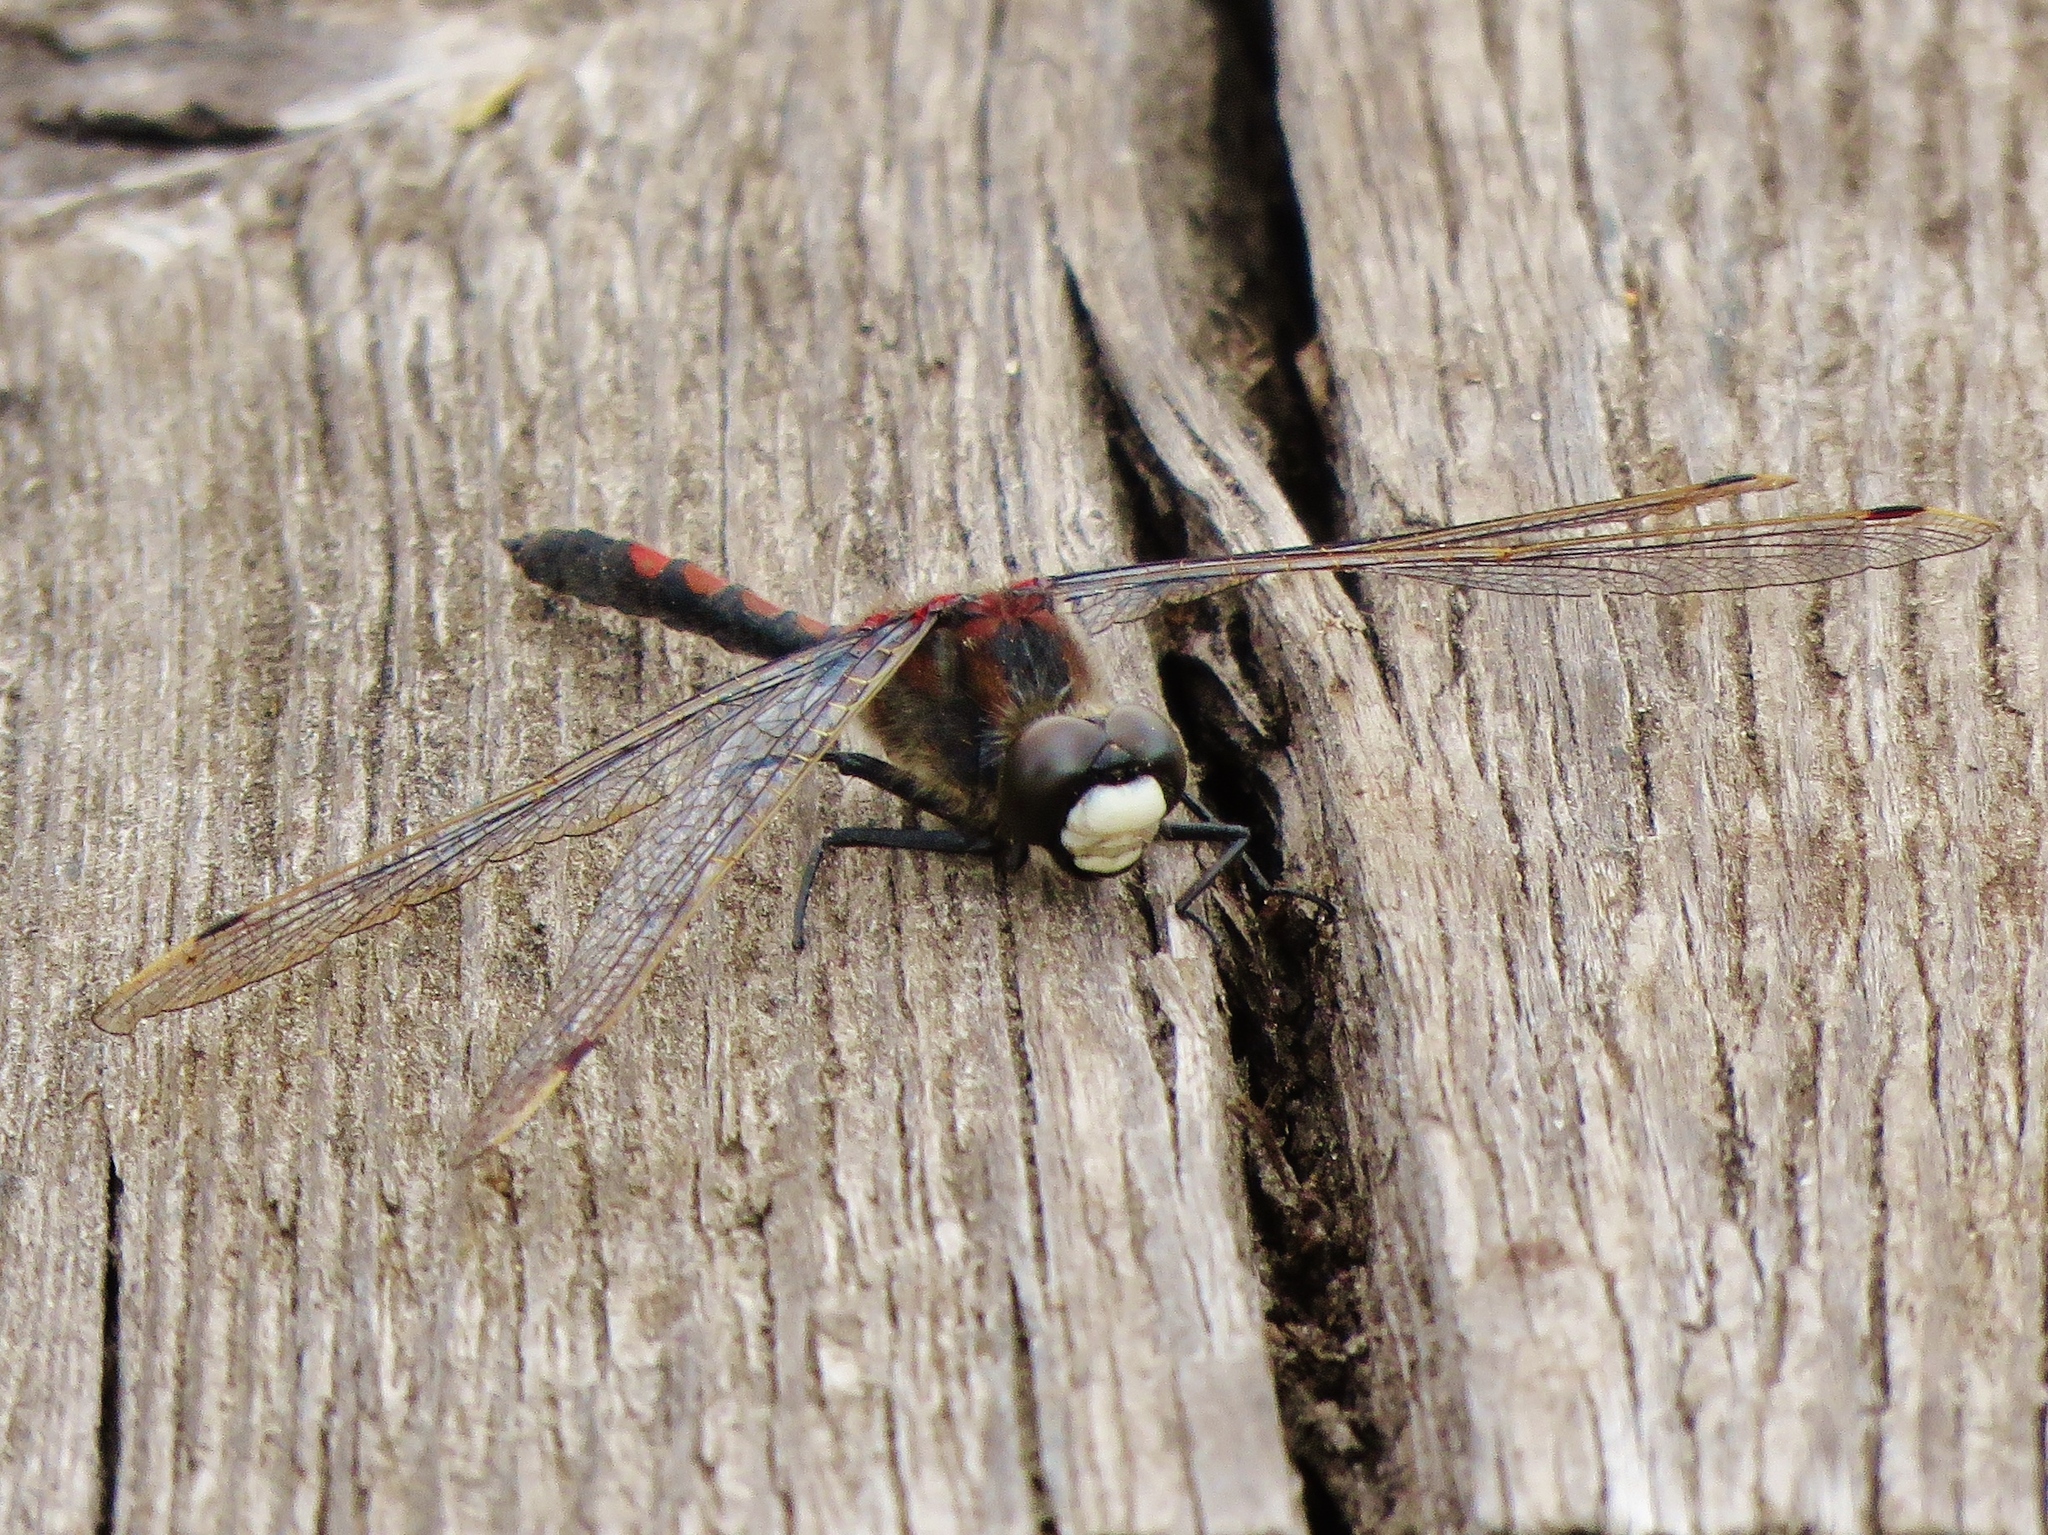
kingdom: Animalia
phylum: Arthropoda
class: Insecta
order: Odonata
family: Libellulidae
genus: Leucorrhinia
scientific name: Leucorrhinia rubicunda
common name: Ruby whiteface
